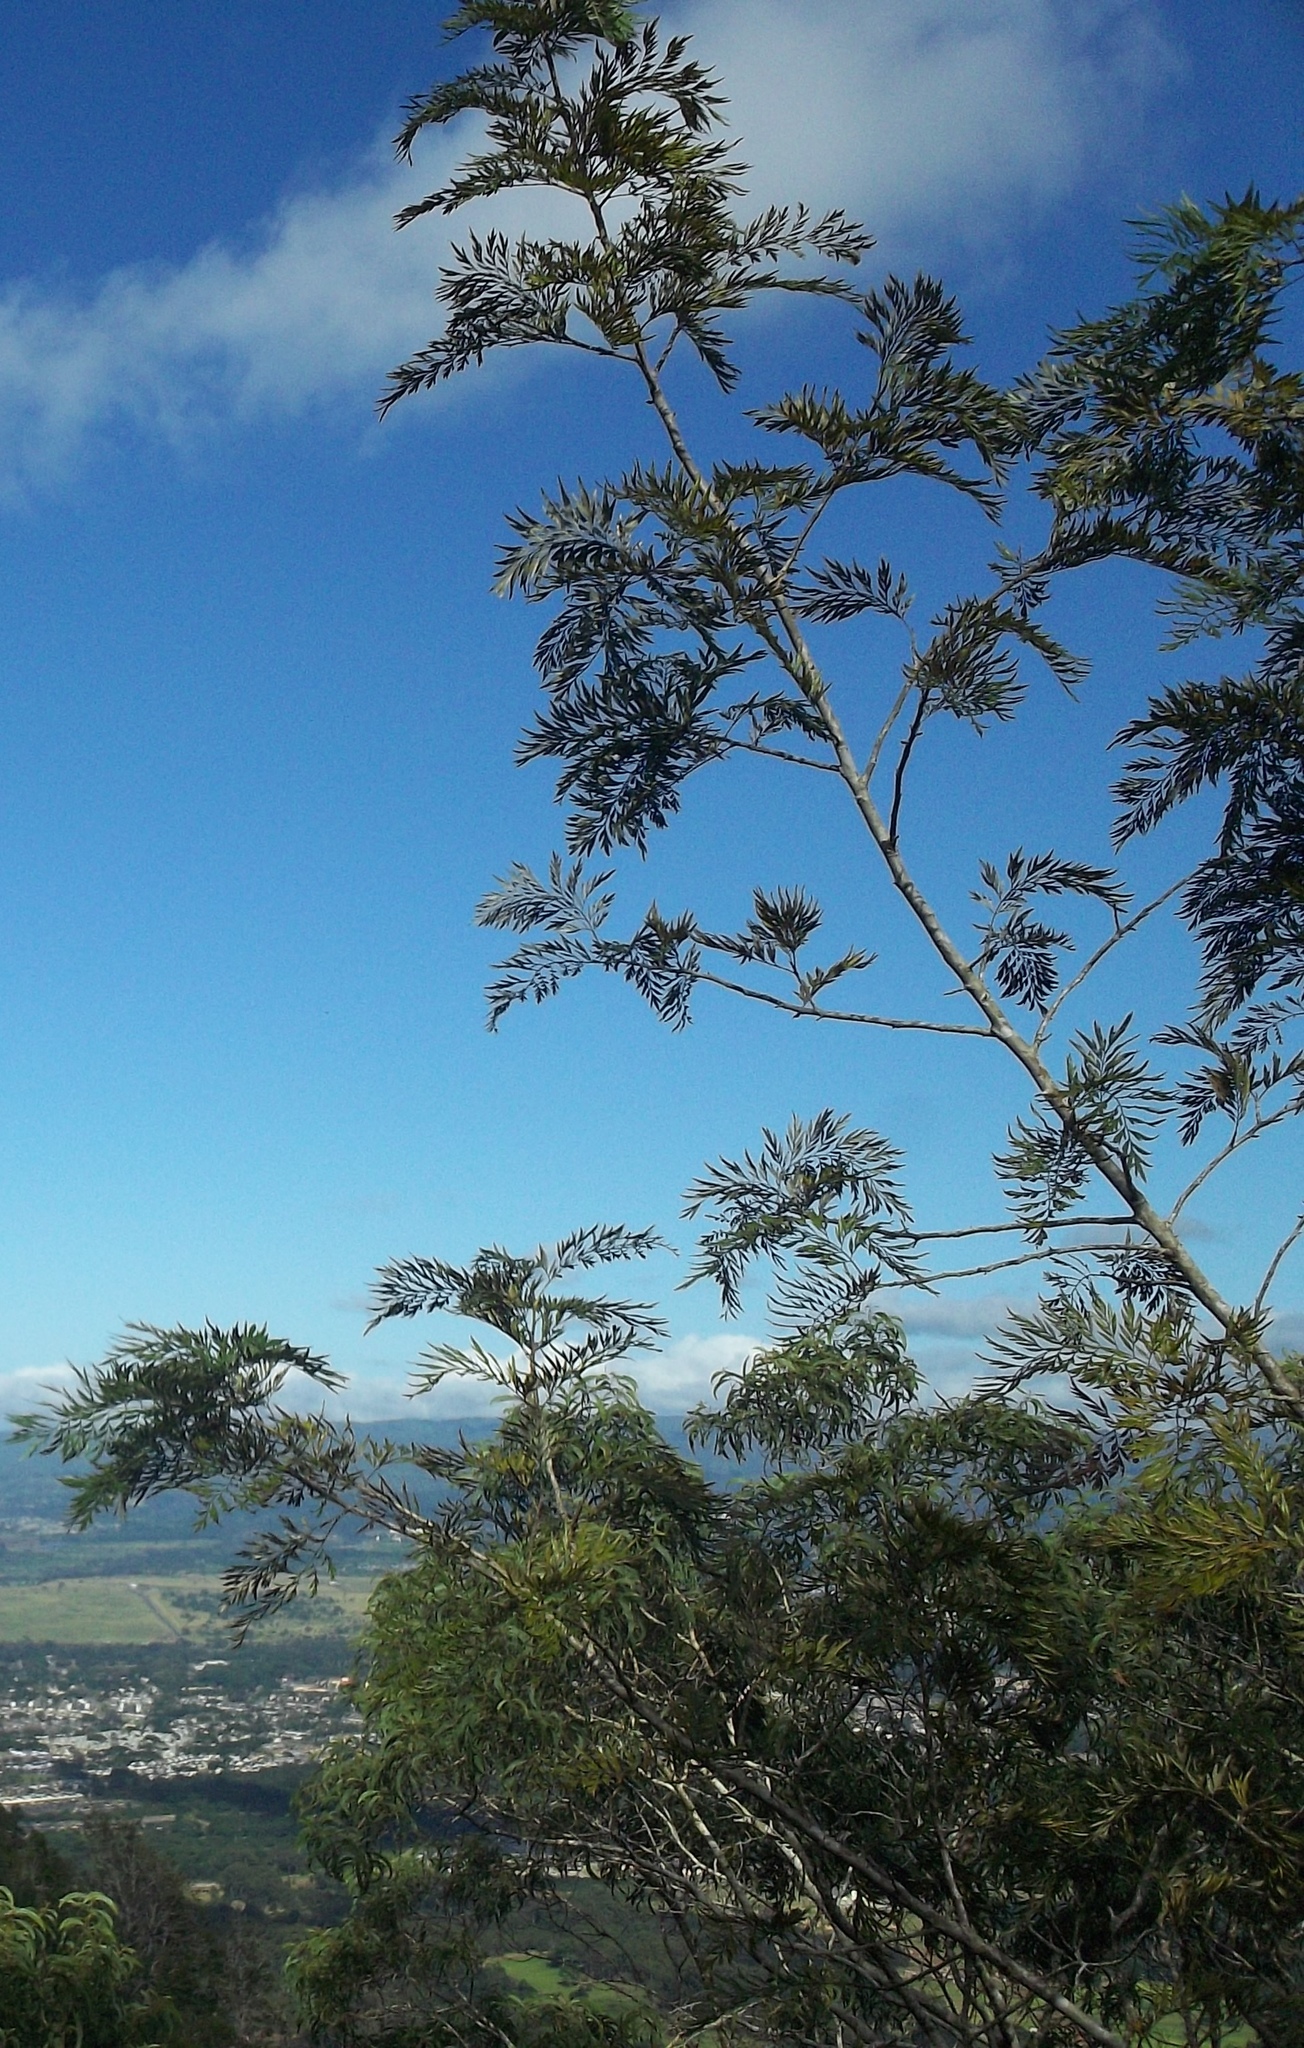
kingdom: Plantae
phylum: Tracheophyta
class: Magnoliopsida
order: Proteales
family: Proteaceae
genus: Grevillea
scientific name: Grevillea robusta
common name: Silkoak
